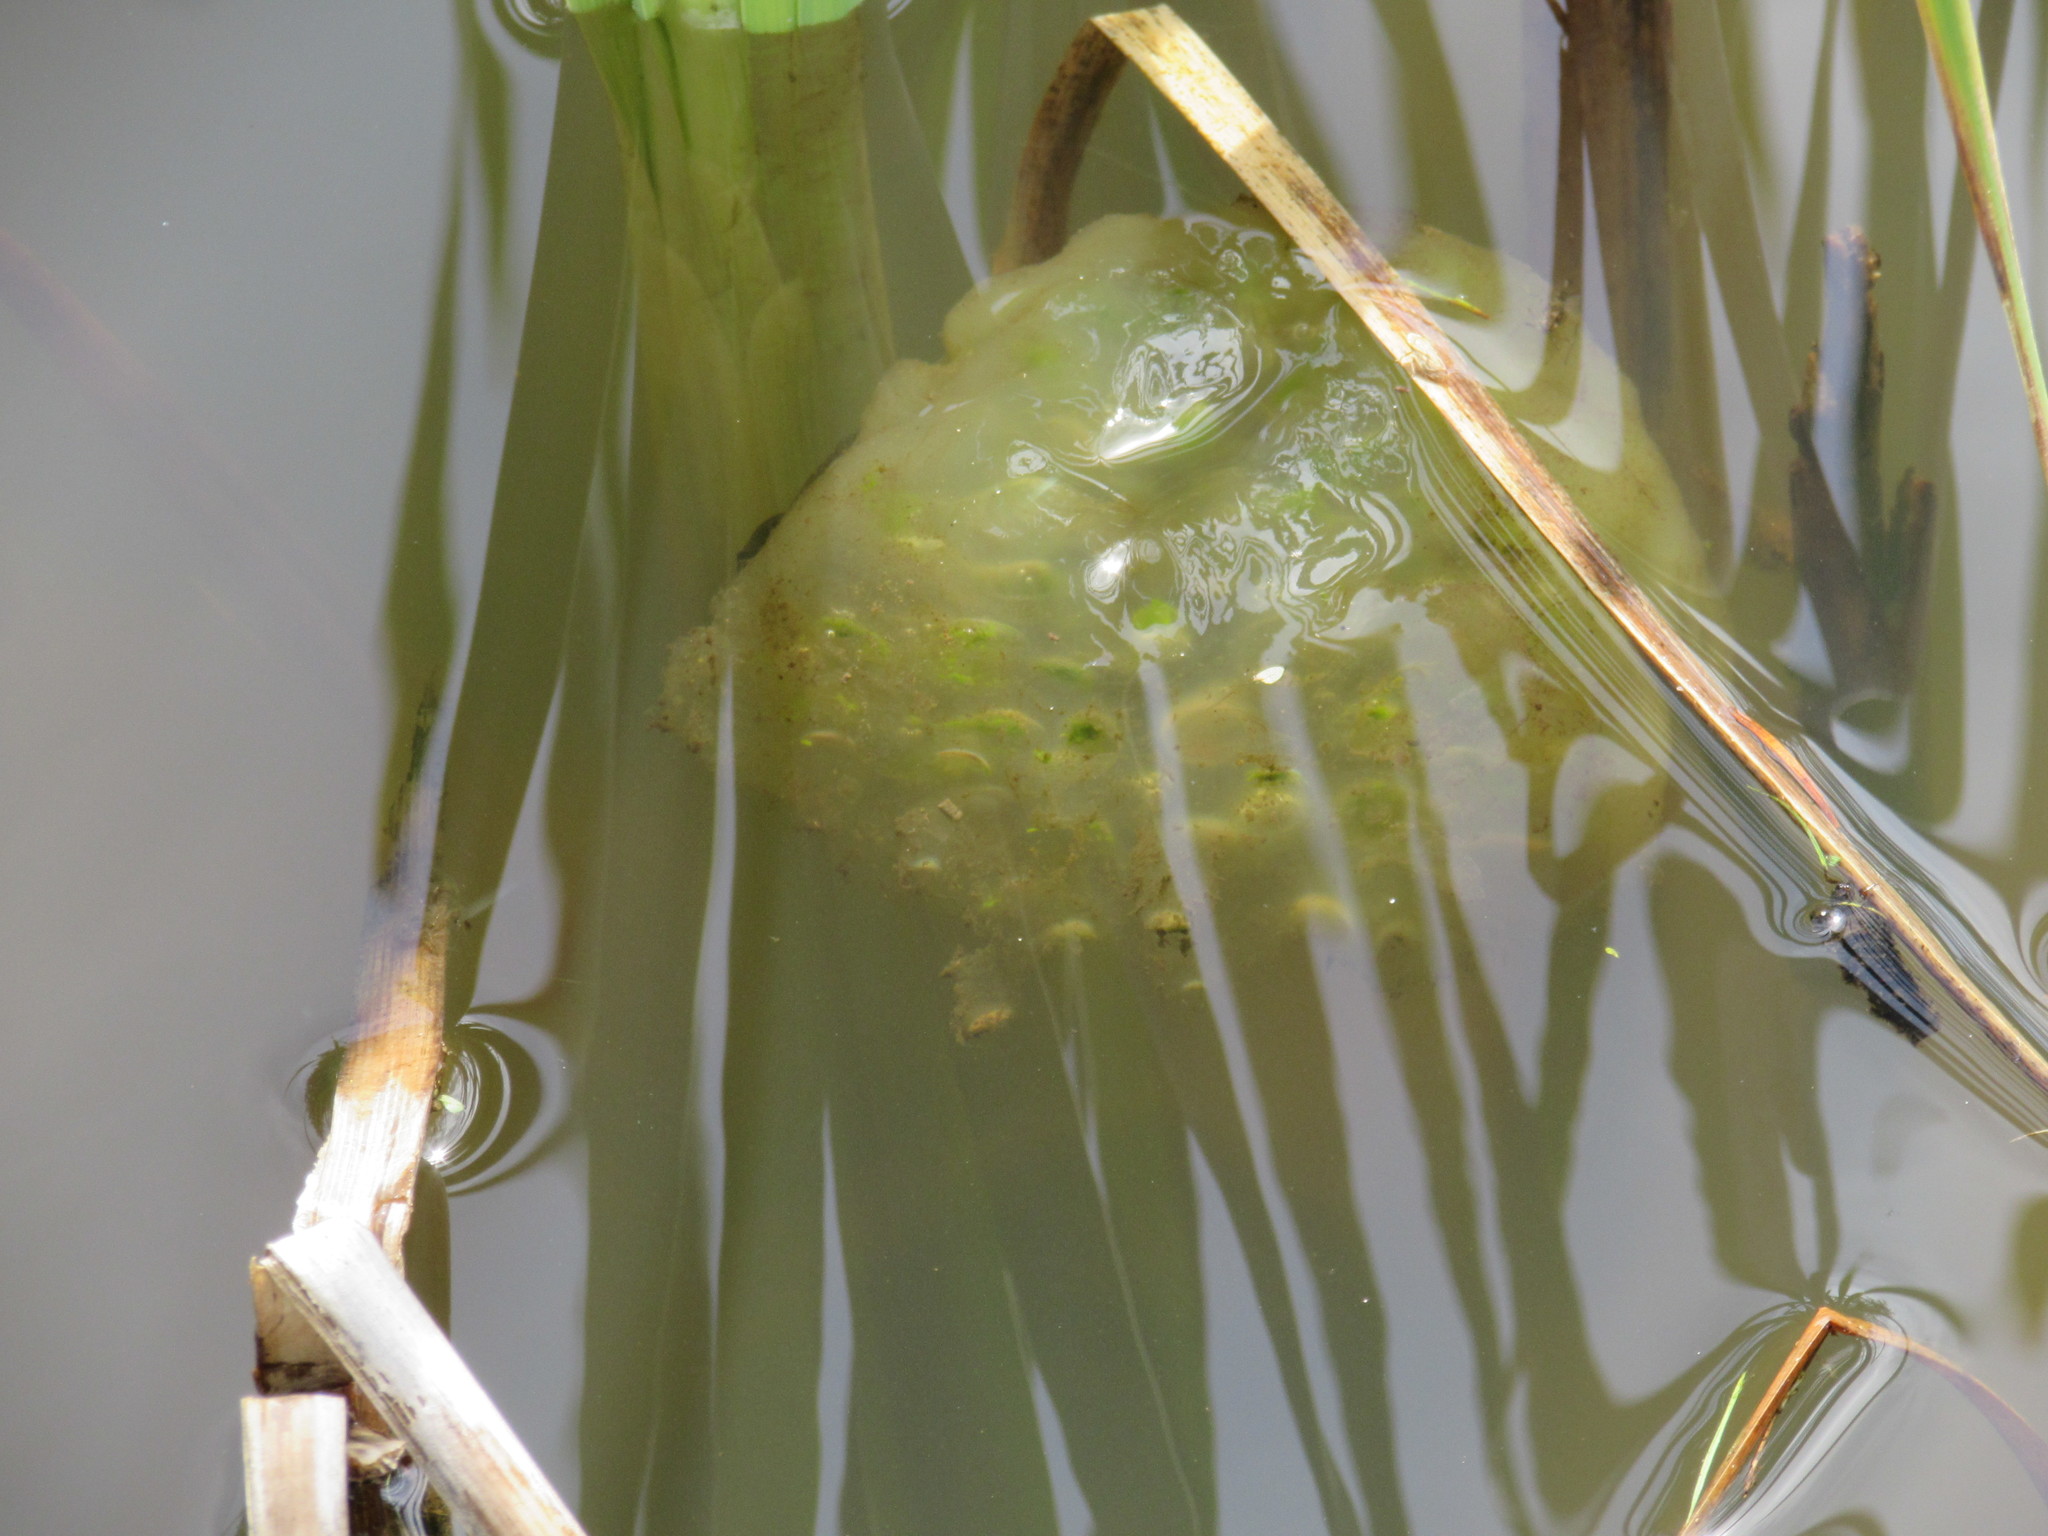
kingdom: Animalia
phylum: Chordata
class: Amphibia
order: Caudata
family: Ambystomatidae
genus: Ambystoma
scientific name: Ambystoma gracile
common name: Northwestern salamander
